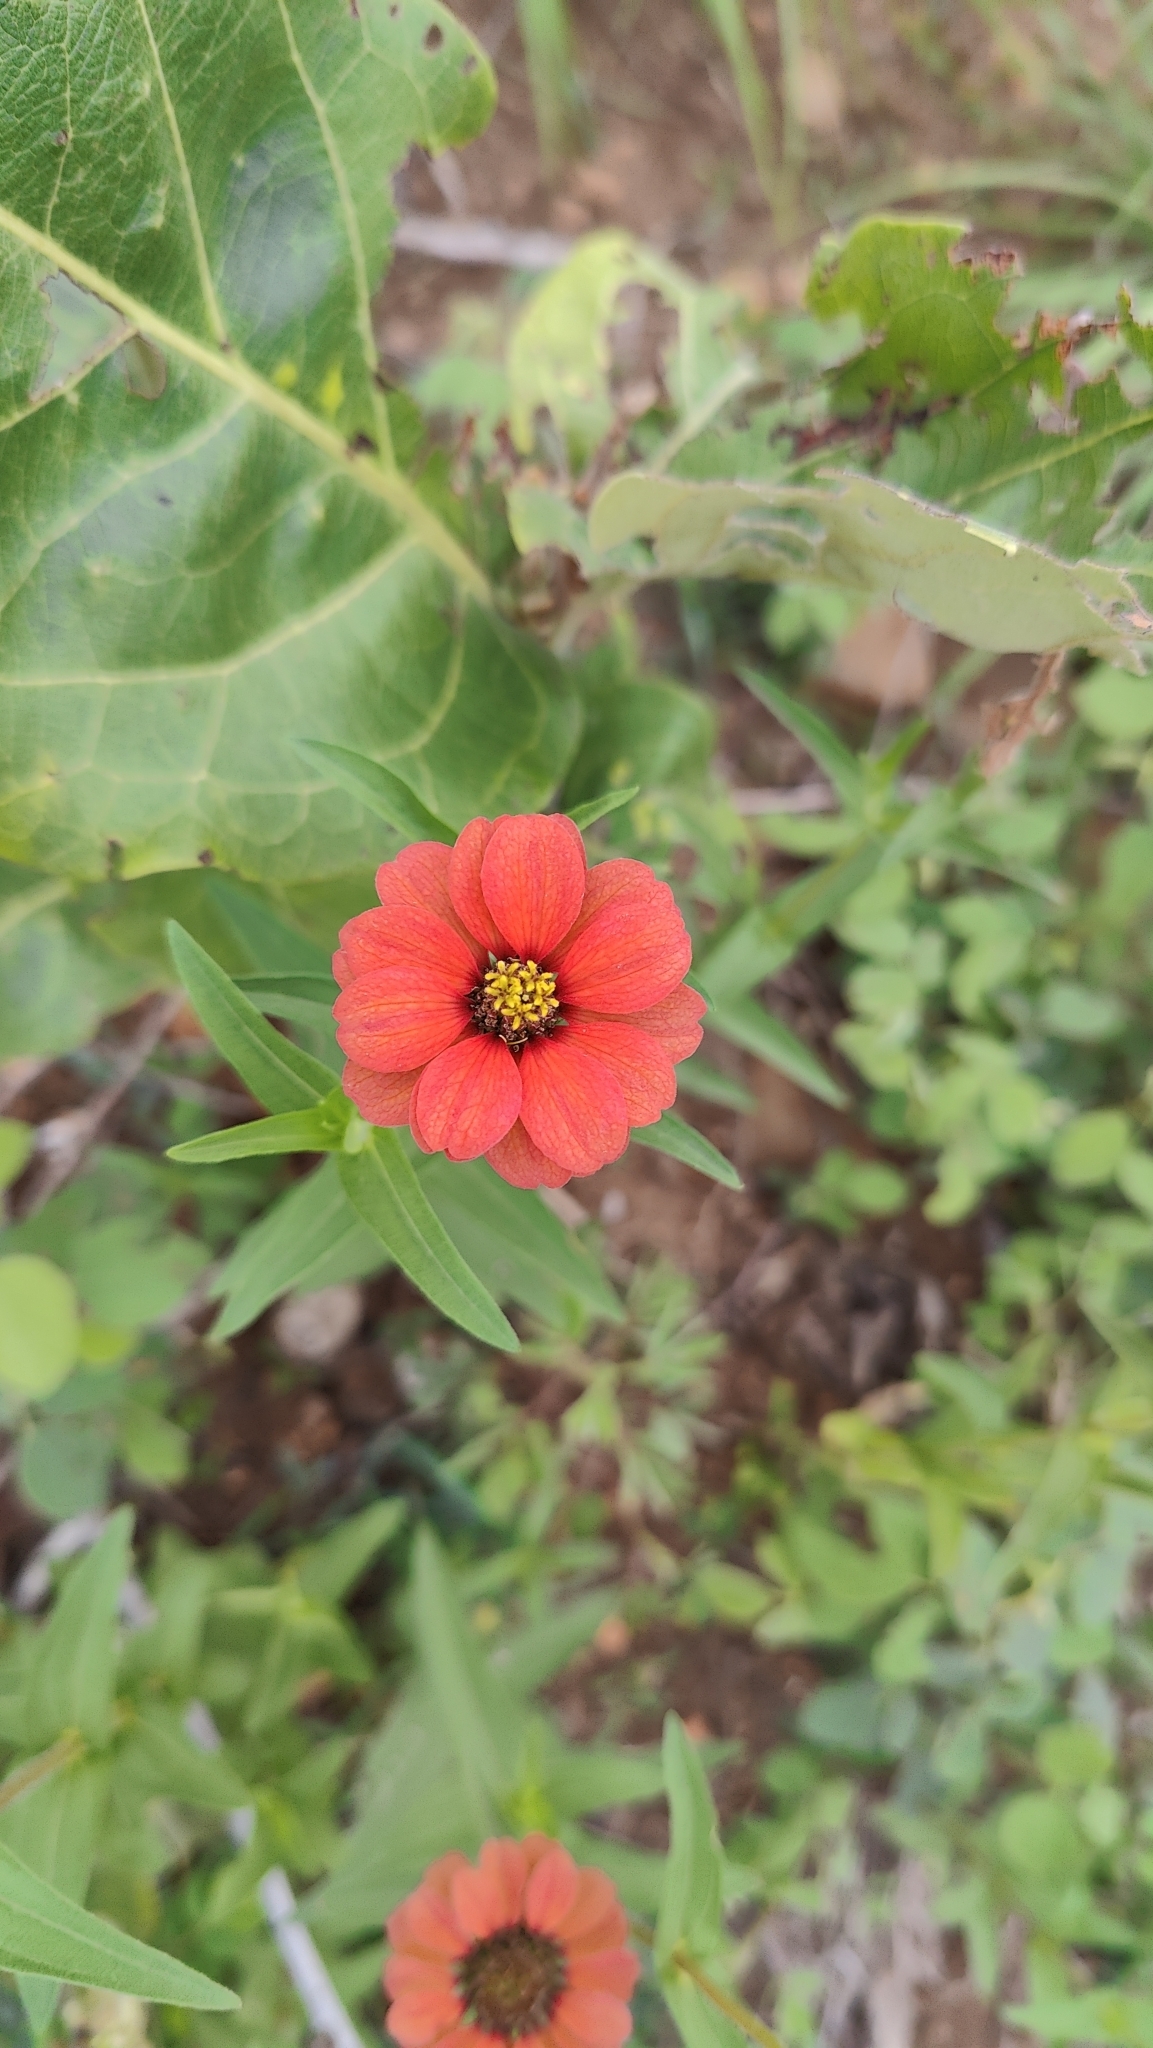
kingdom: Plantae
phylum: Tracheophyta
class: Magnoliopsida
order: Asterales
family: Asteraceae
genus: Zinnia
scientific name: Zinnia peruviana
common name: Peruvian zinnia
